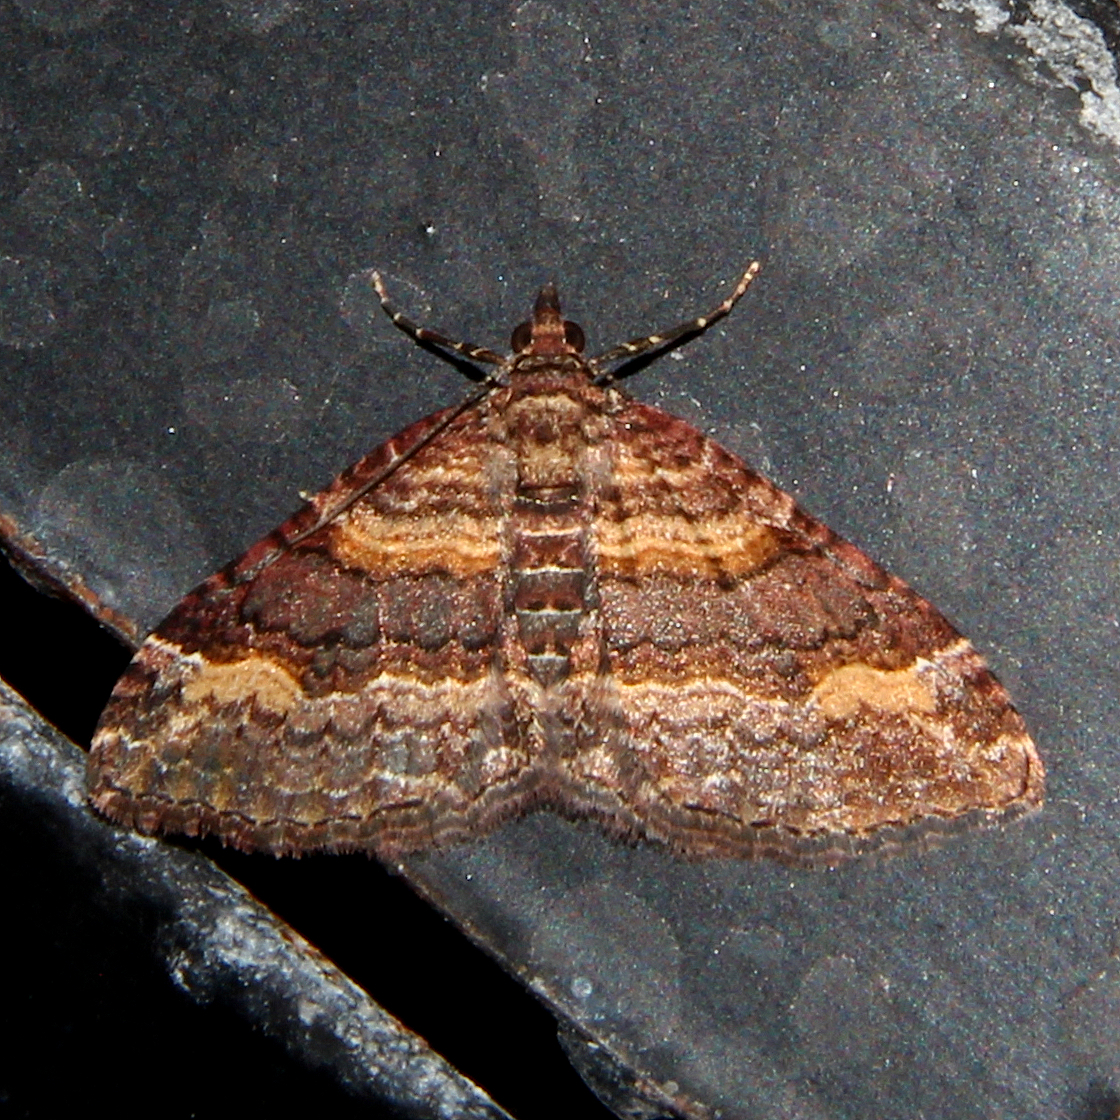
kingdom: Animalia
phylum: Arthropoda
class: Insecta
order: Lepidoptera
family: Geometridae
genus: Epyaxa
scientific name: Epyaxa lucidata
